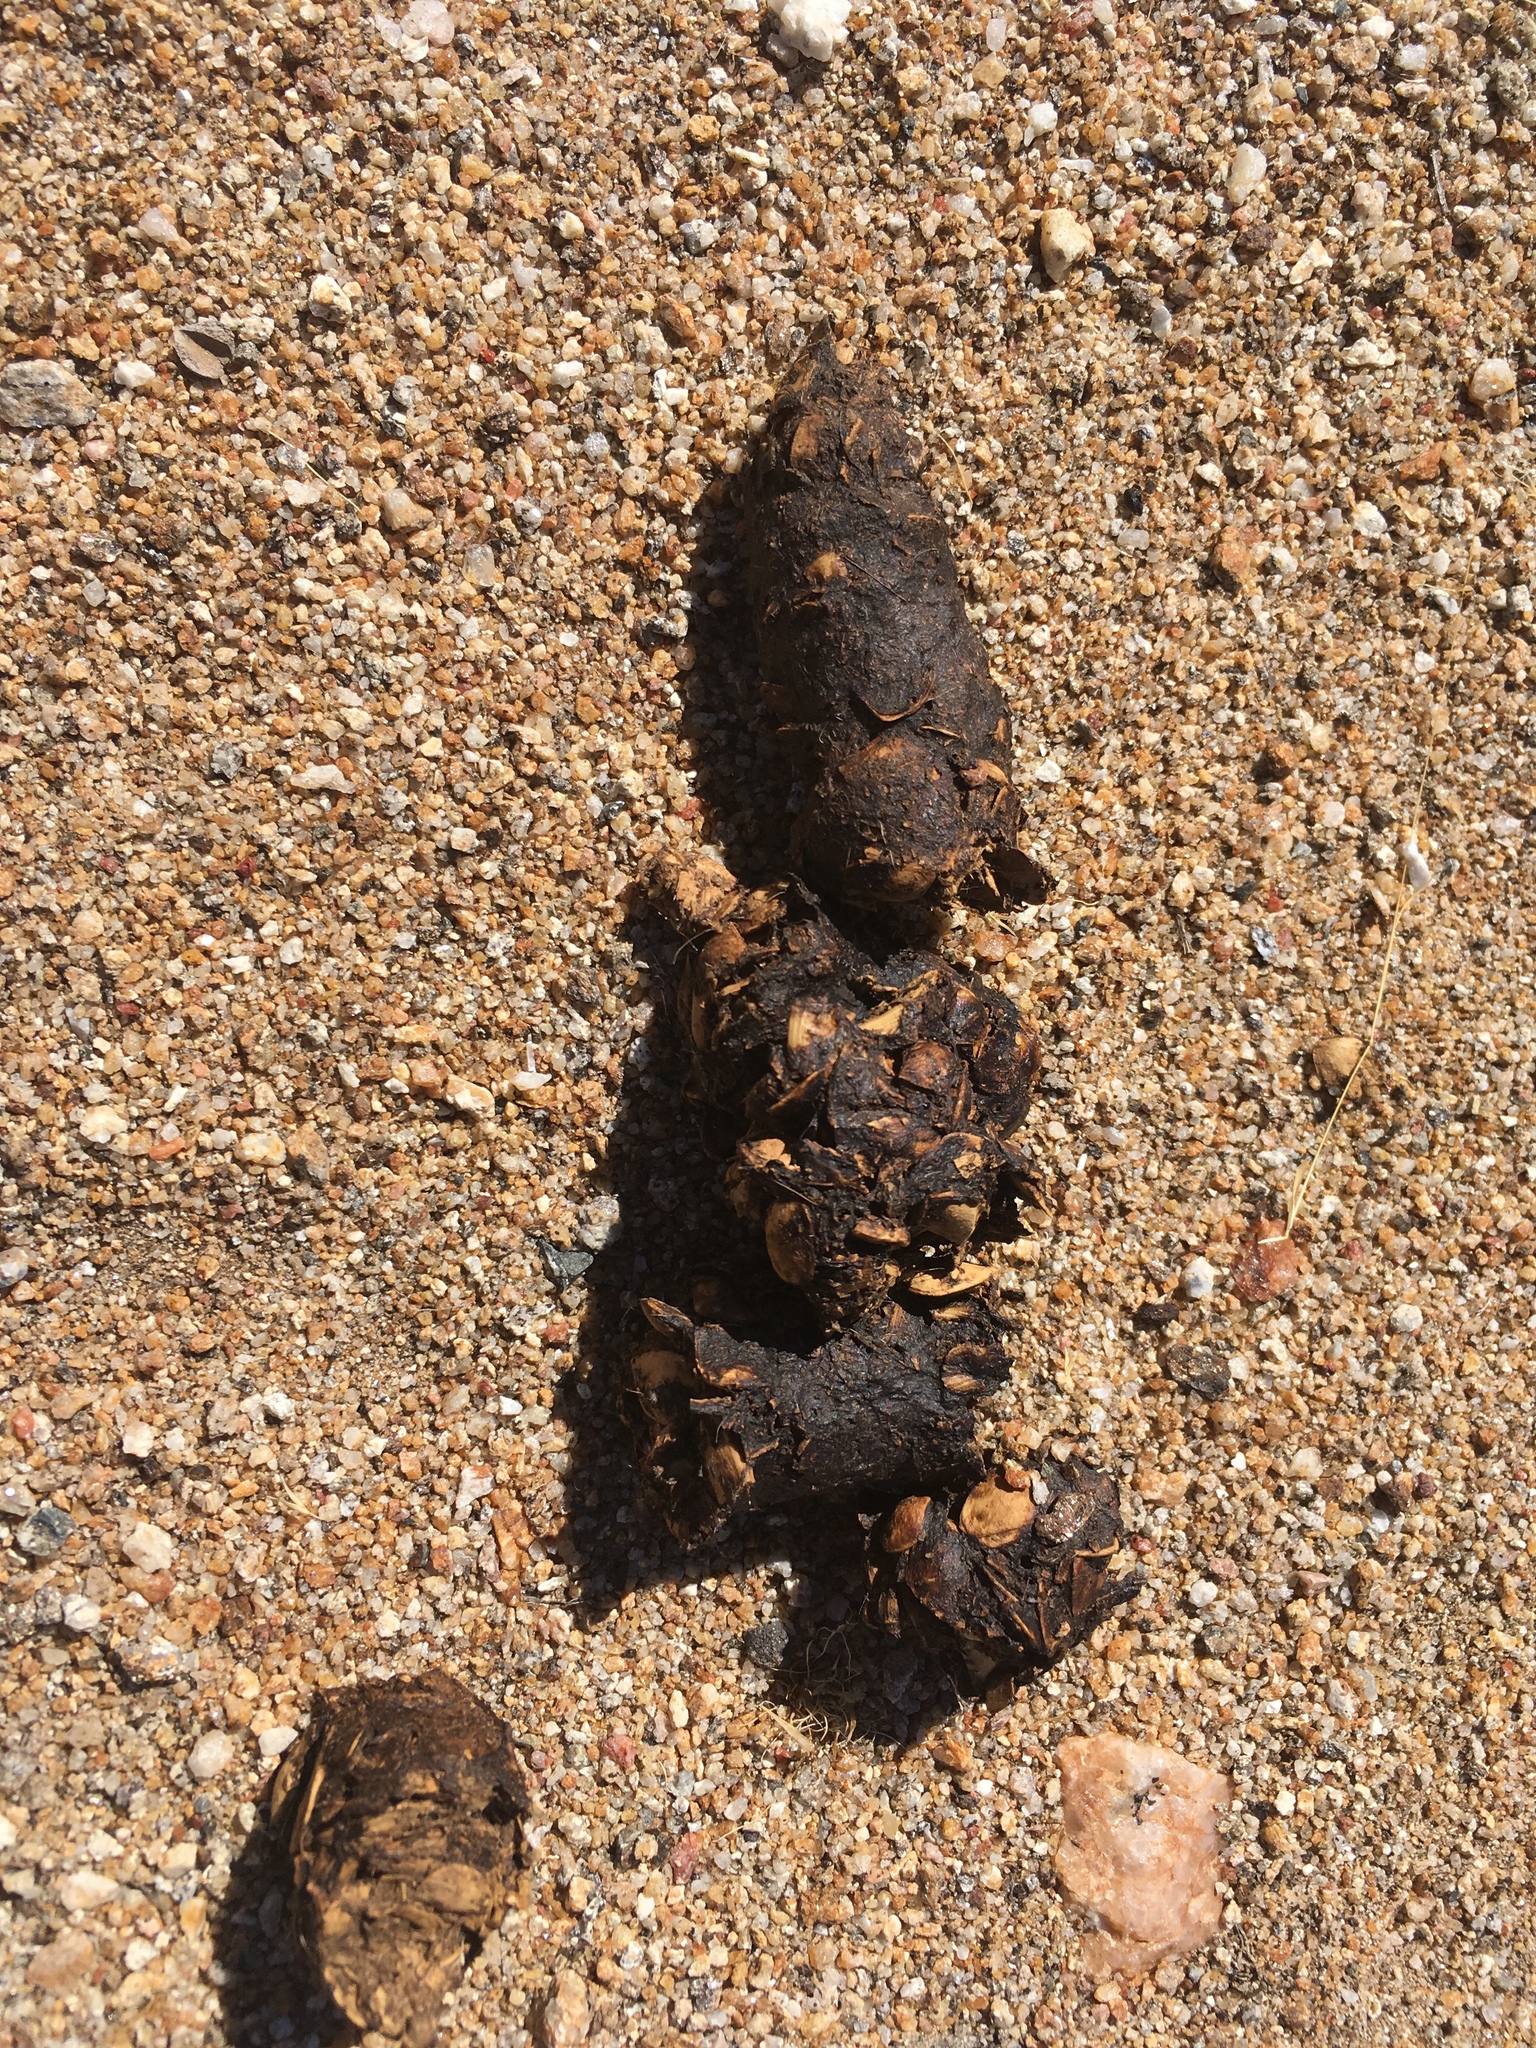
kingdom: Animalia
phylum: Chordata
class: Mammalia
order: Carnivora
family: Canidae
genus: Canis
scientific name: Canis latrans
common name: Coyote
